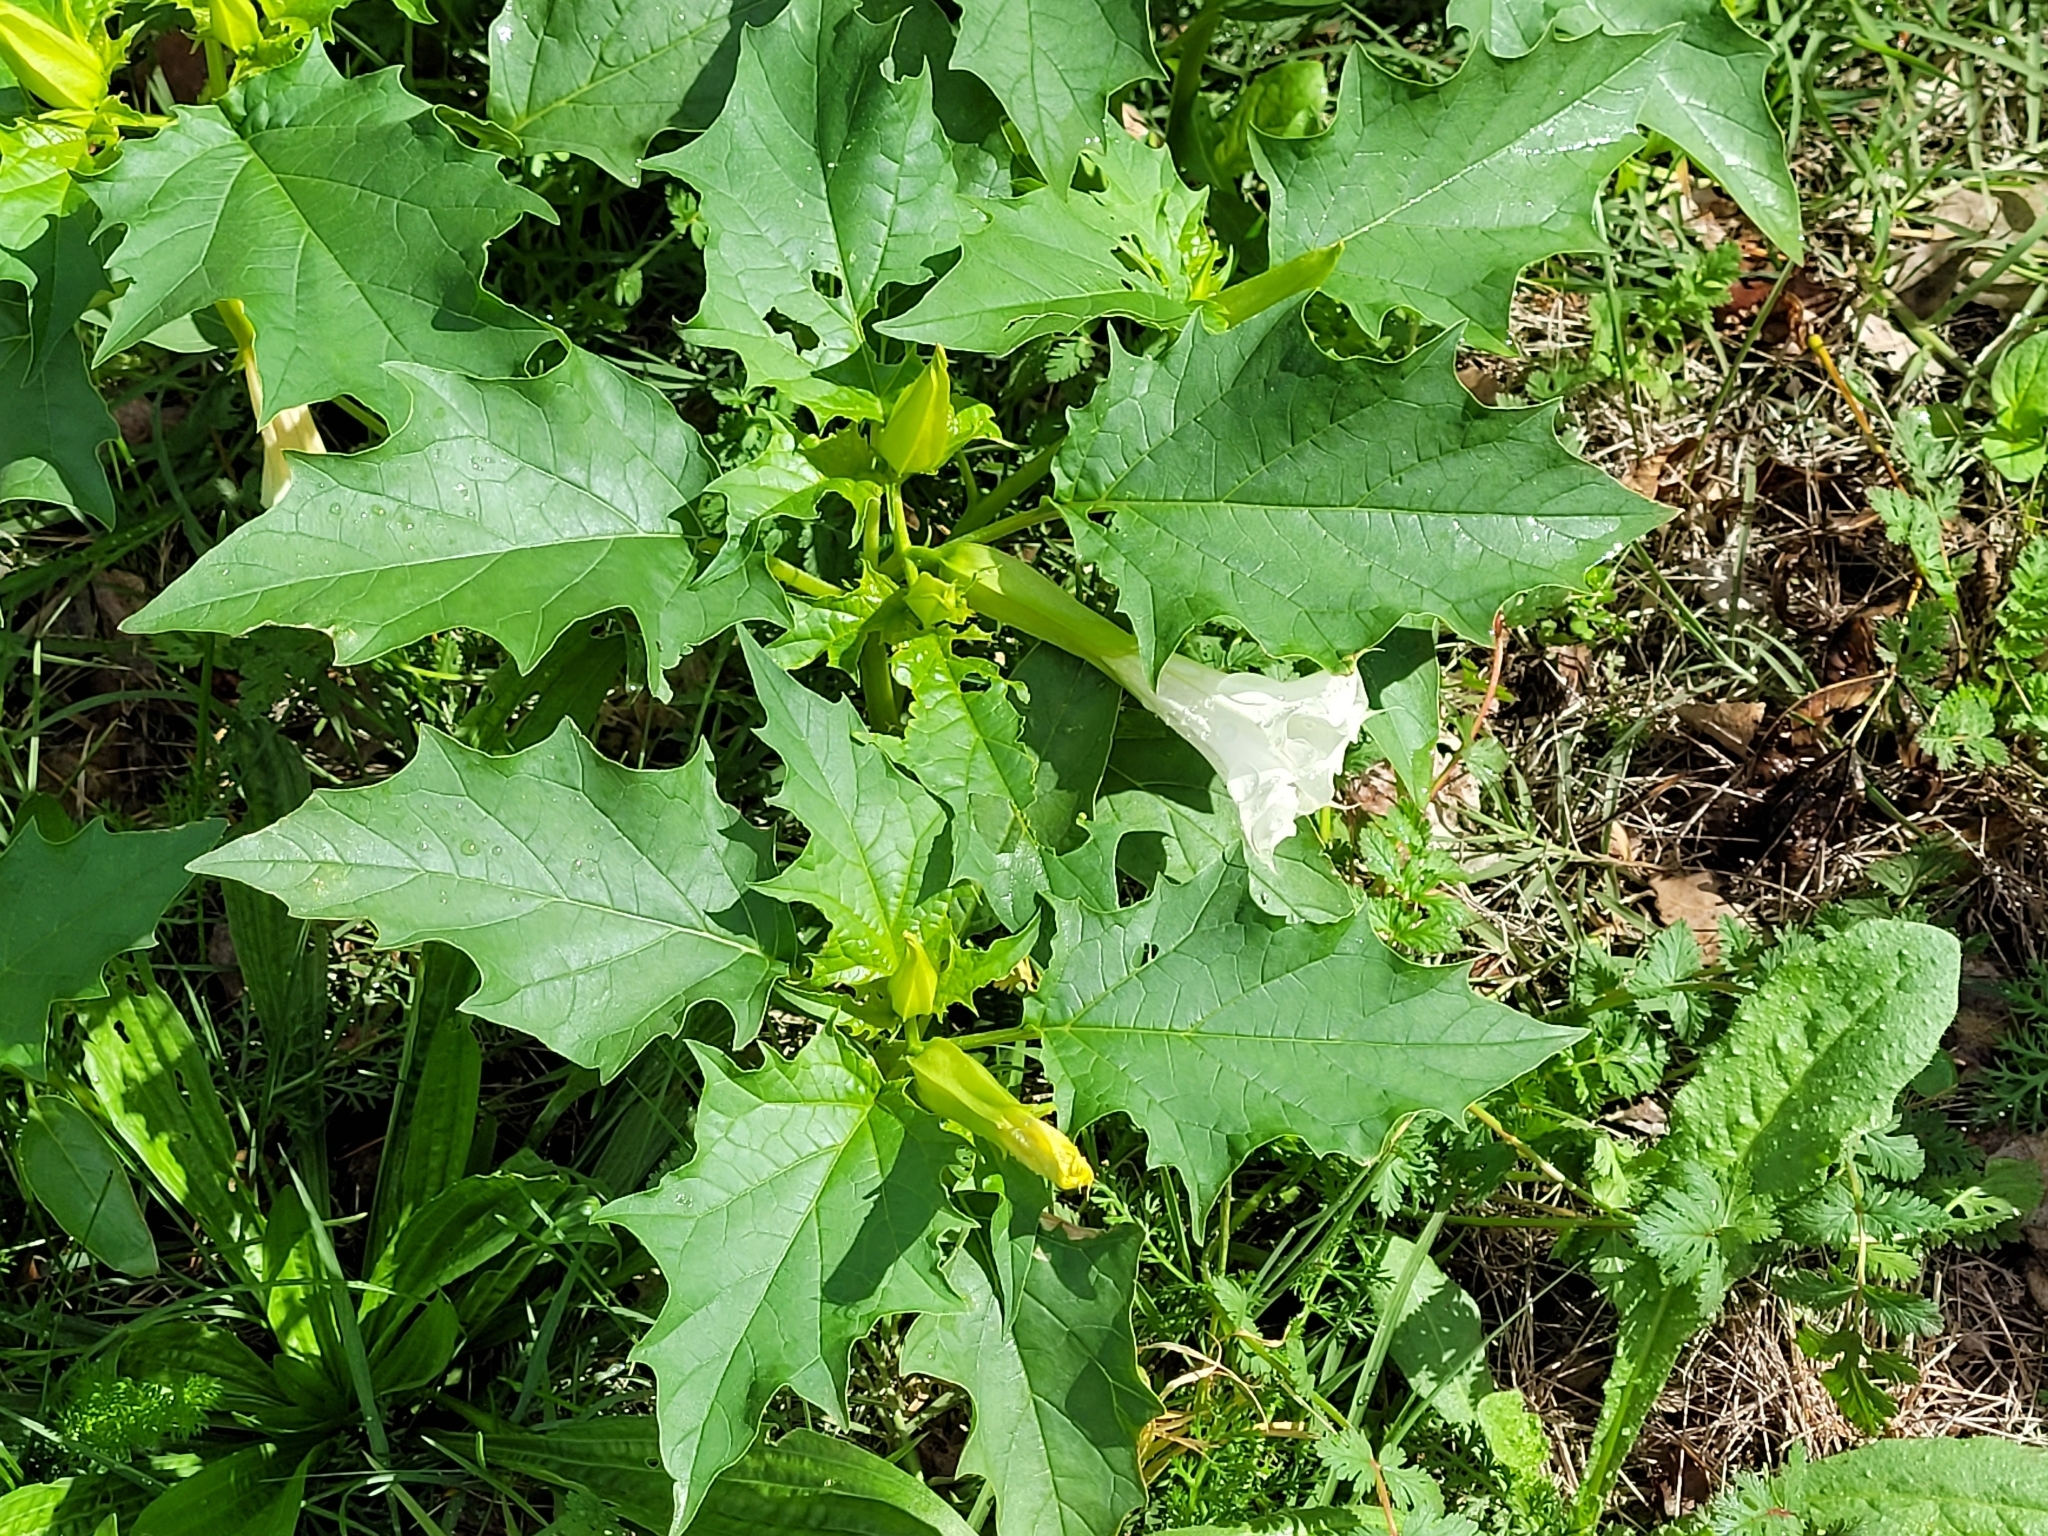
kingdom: Plantae
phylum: Tracheophyta
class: Magnoliopsida
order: Solanales
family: Solanaceae
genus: Datura
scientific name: Datura stramonium
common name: Thorn-apple
